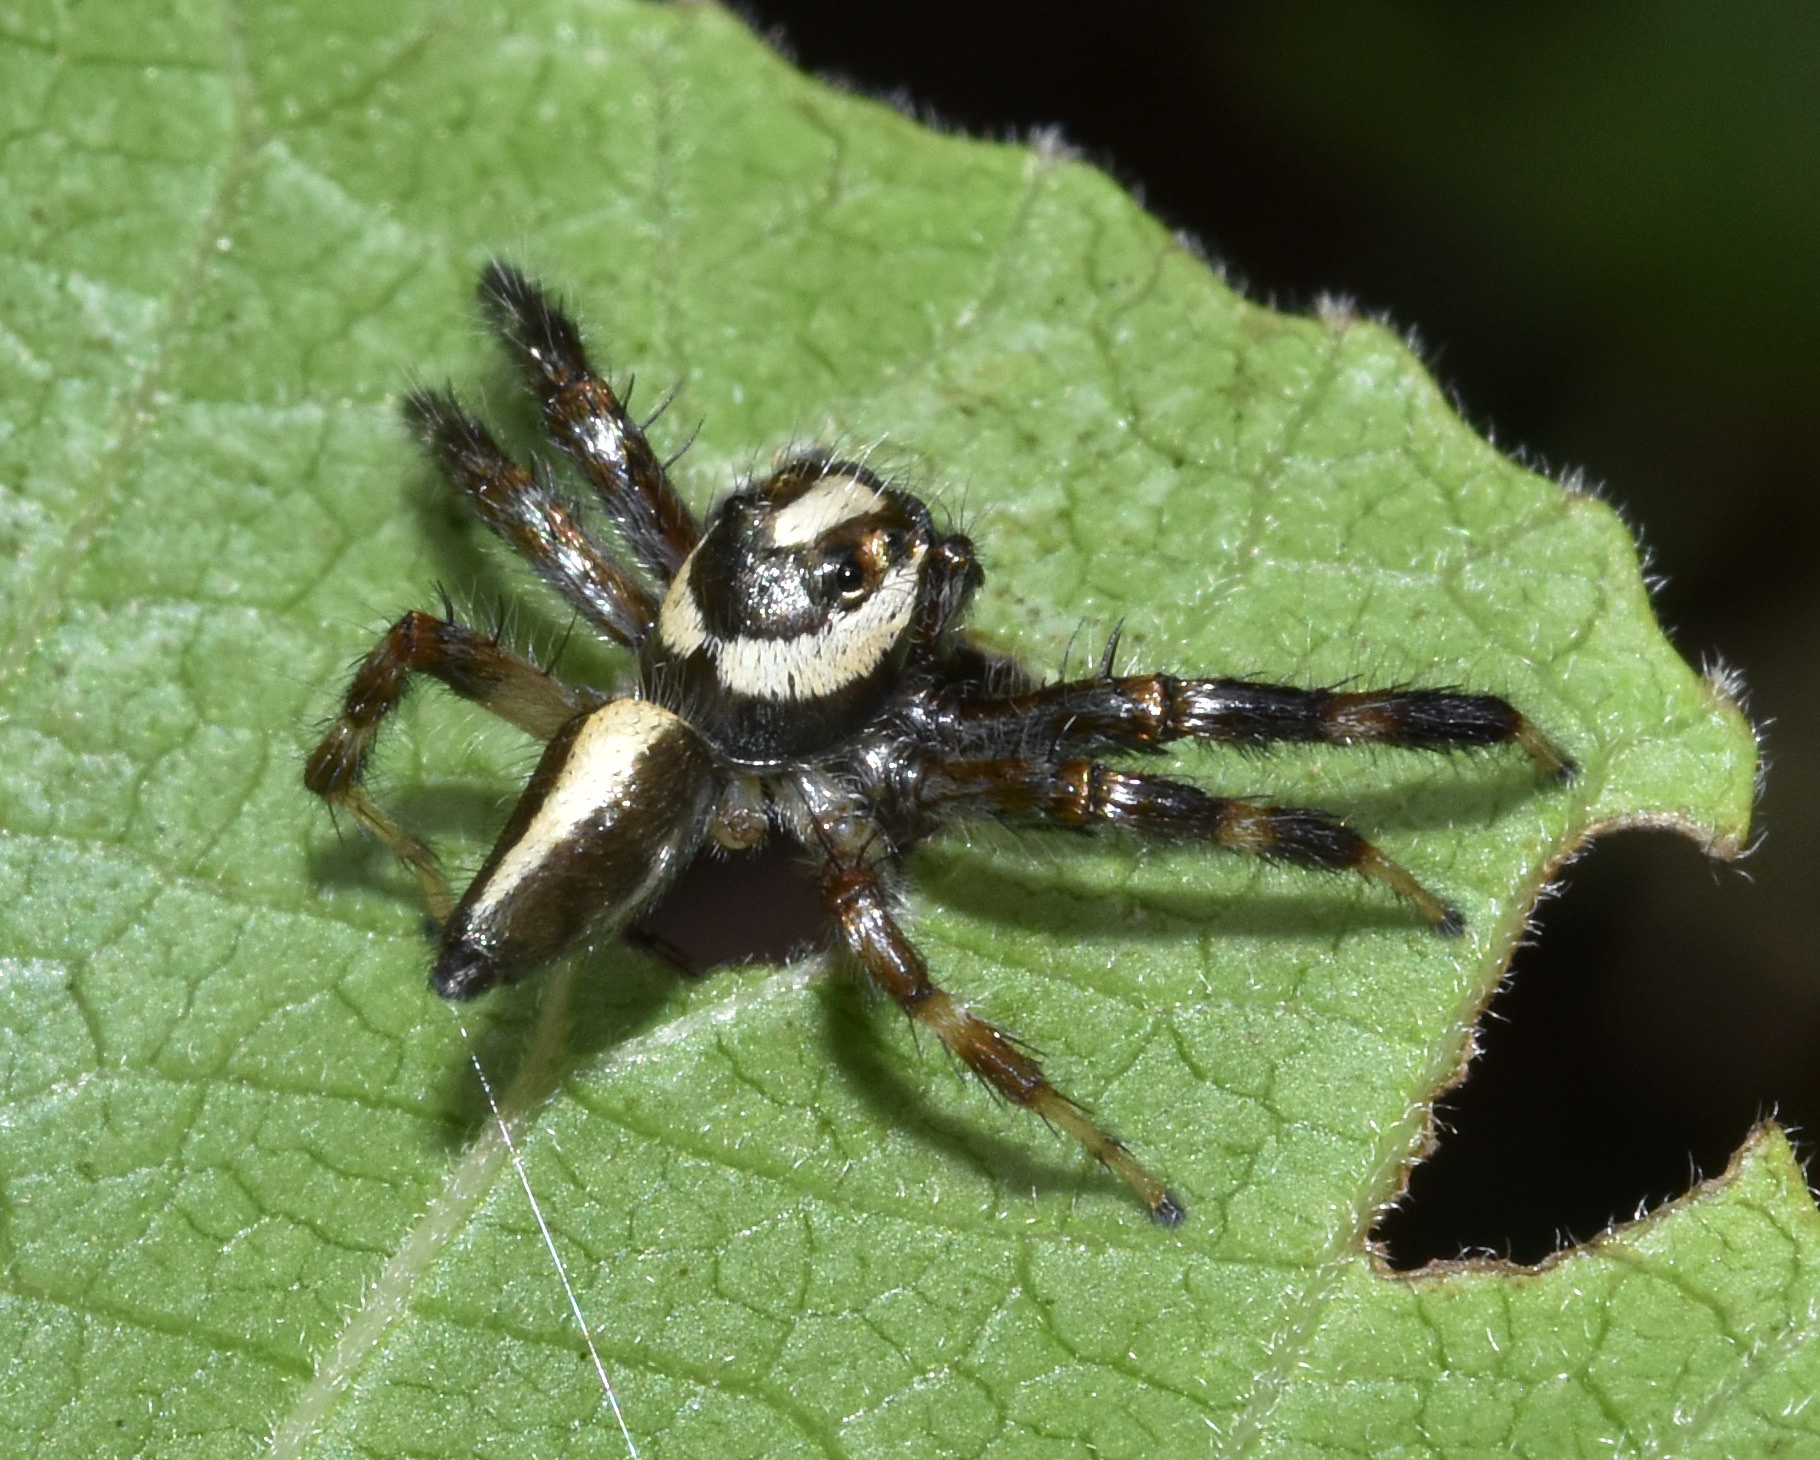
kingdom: Animalia
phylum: Arthropoda
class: Arachnida
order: Araneae
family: Salticidae
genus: Brancus
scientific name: Brancus mustelus
